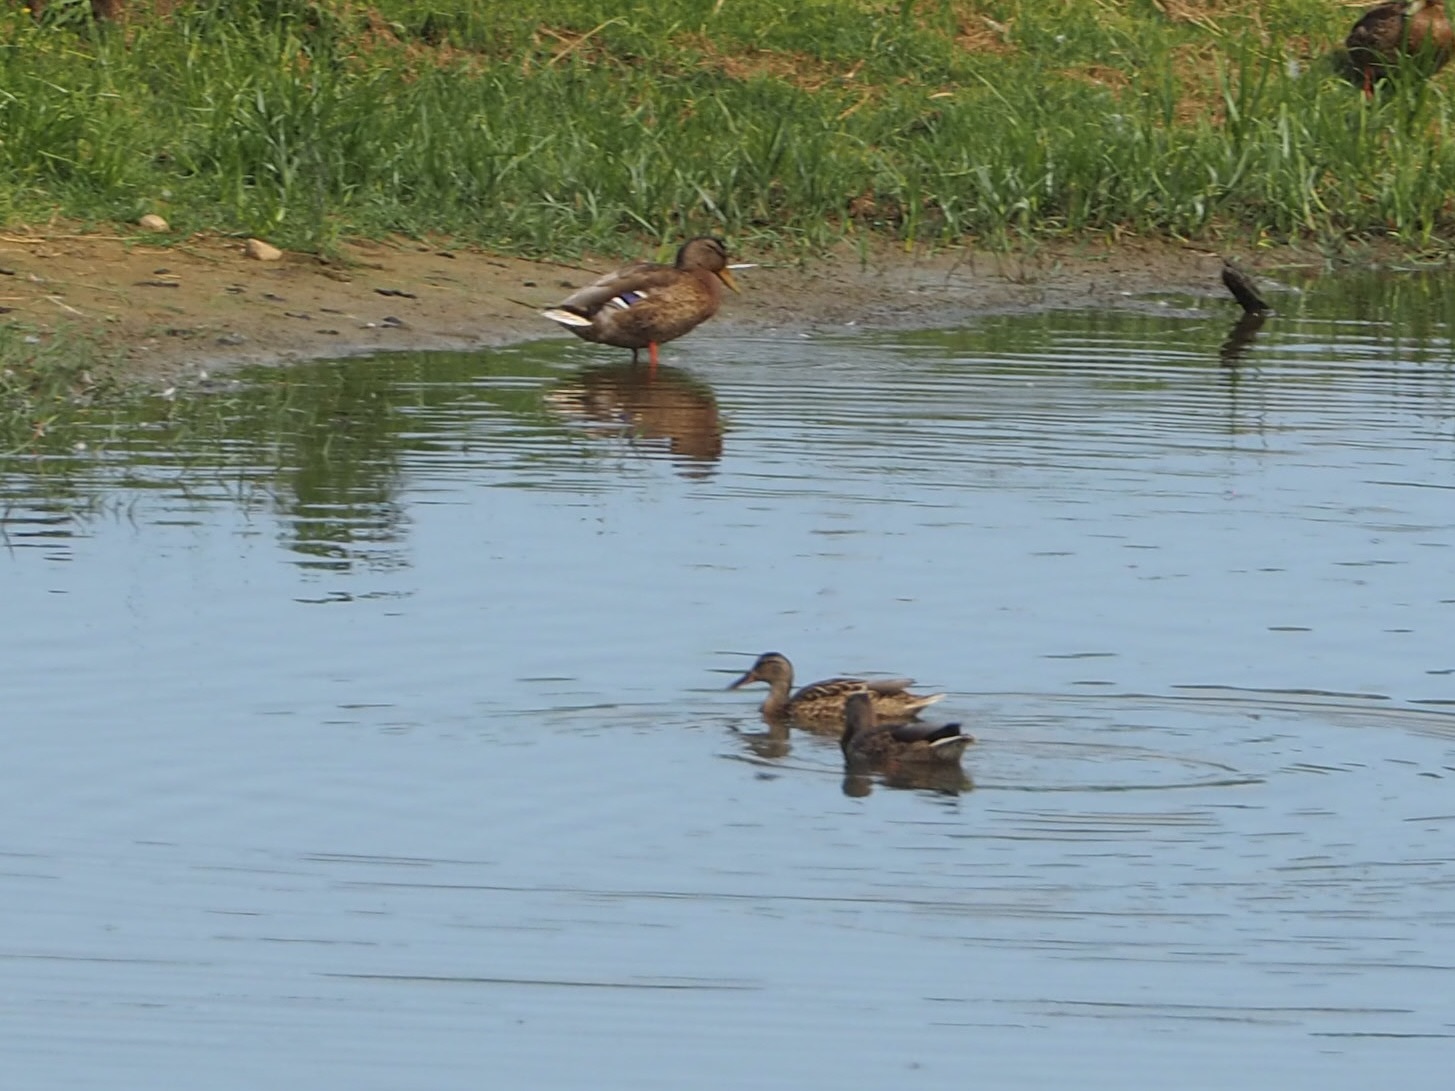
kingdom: Animalia
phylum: Chordata
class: Aves
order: Anseriformes
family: Anatidae
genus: Anas
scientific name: Anas platyrhynchos
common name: Mallard
